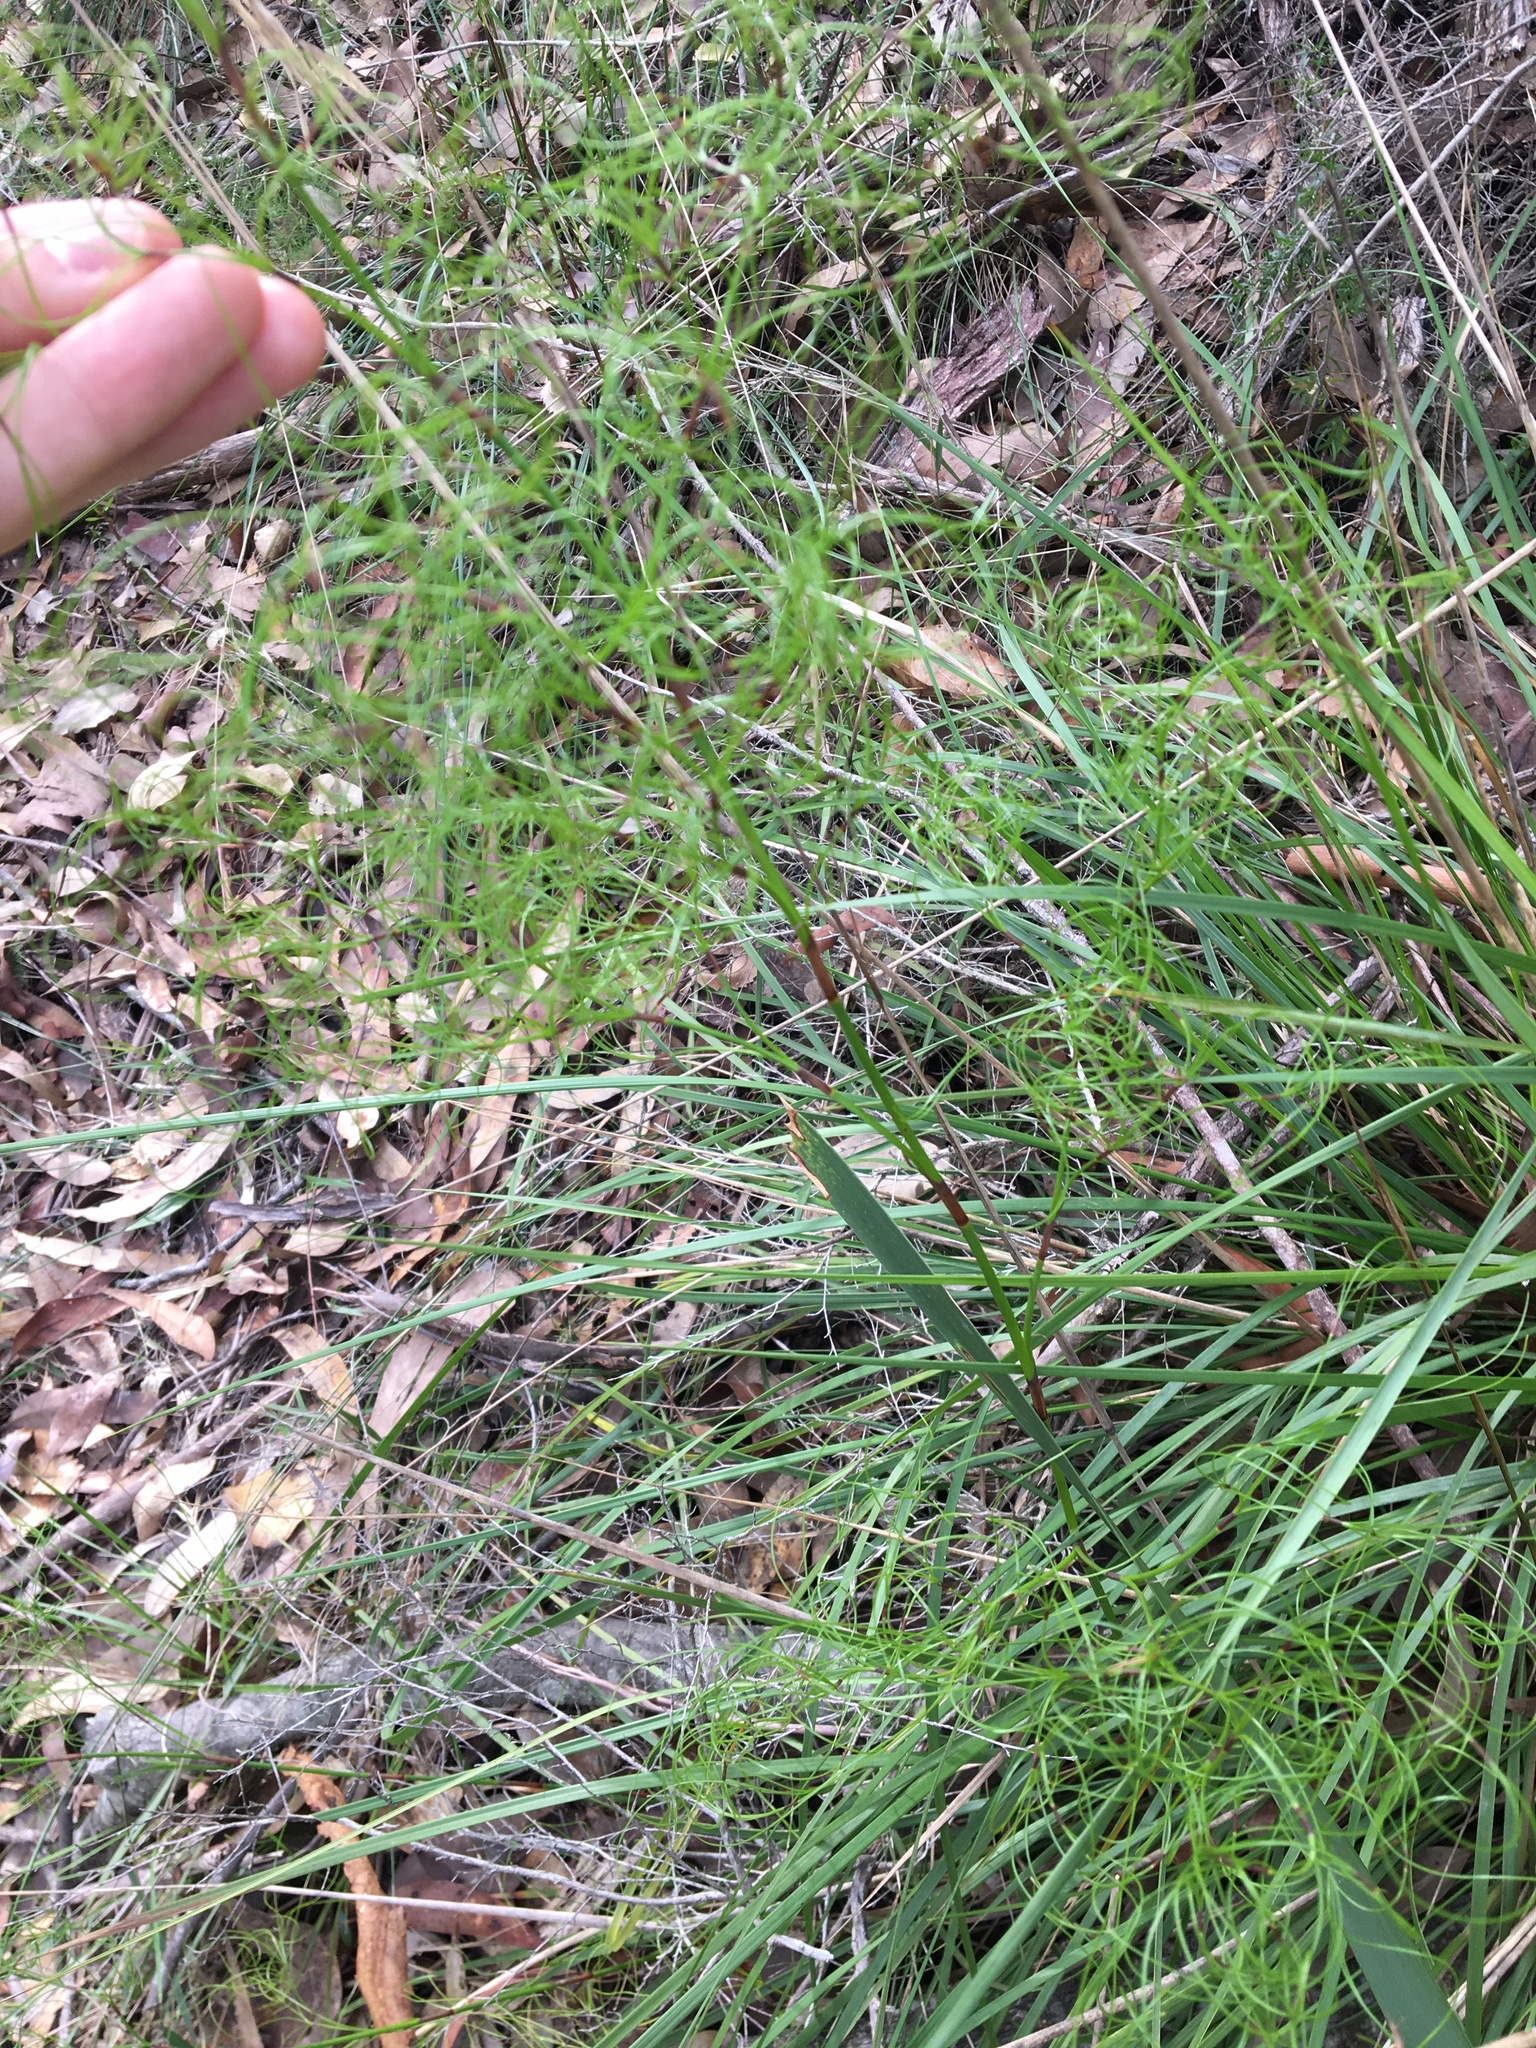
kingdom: Plantae
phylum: Tracheophyta
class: Liliopsida
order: Poales
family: Cyperaceae
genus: Caustis
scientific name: Caustis flexuosa
